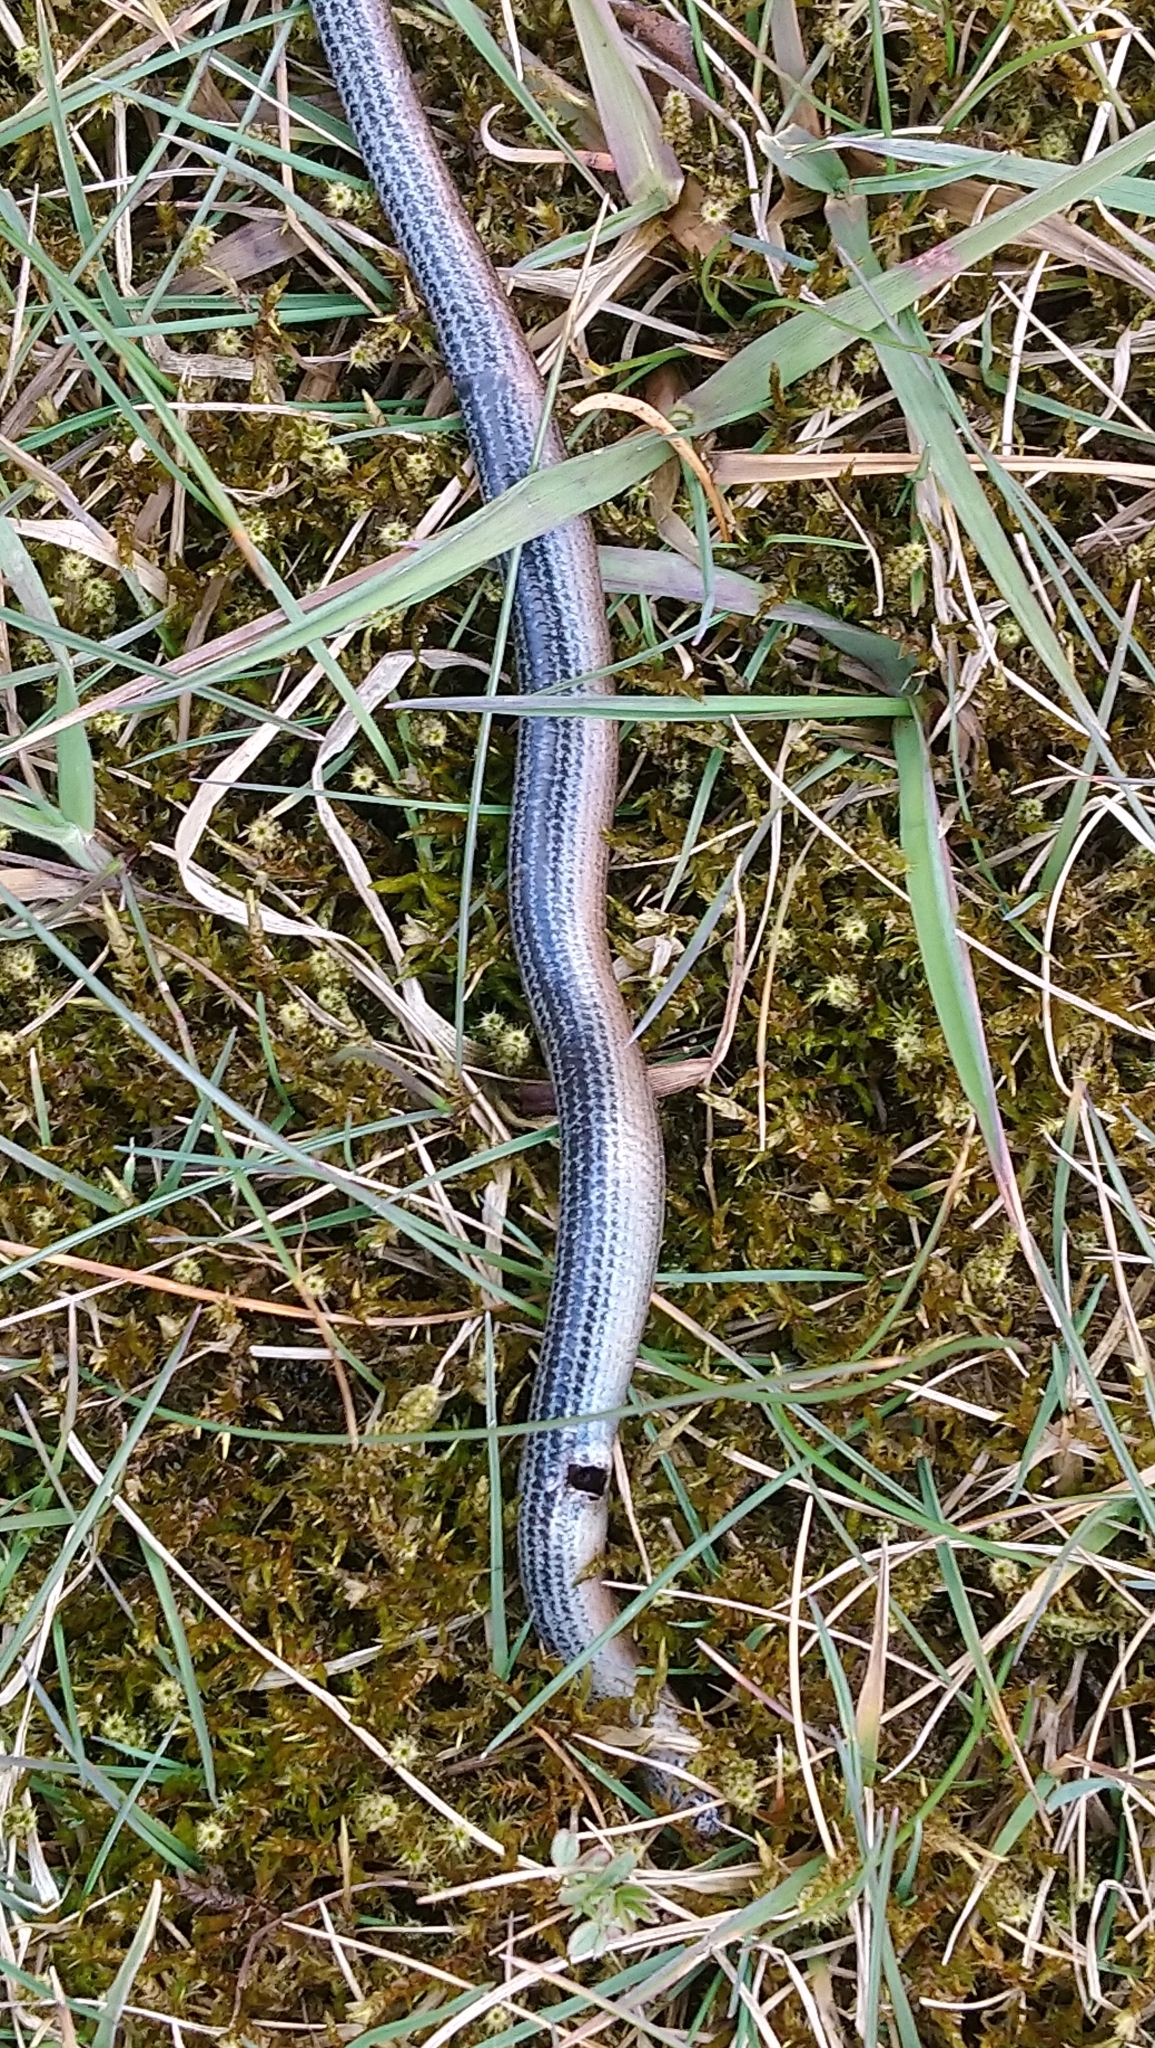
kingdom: Animalia
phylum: Chordata
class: Squamata
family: Anguidae
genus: Anguis
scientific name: Anguis fragilis
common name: Slow worm
